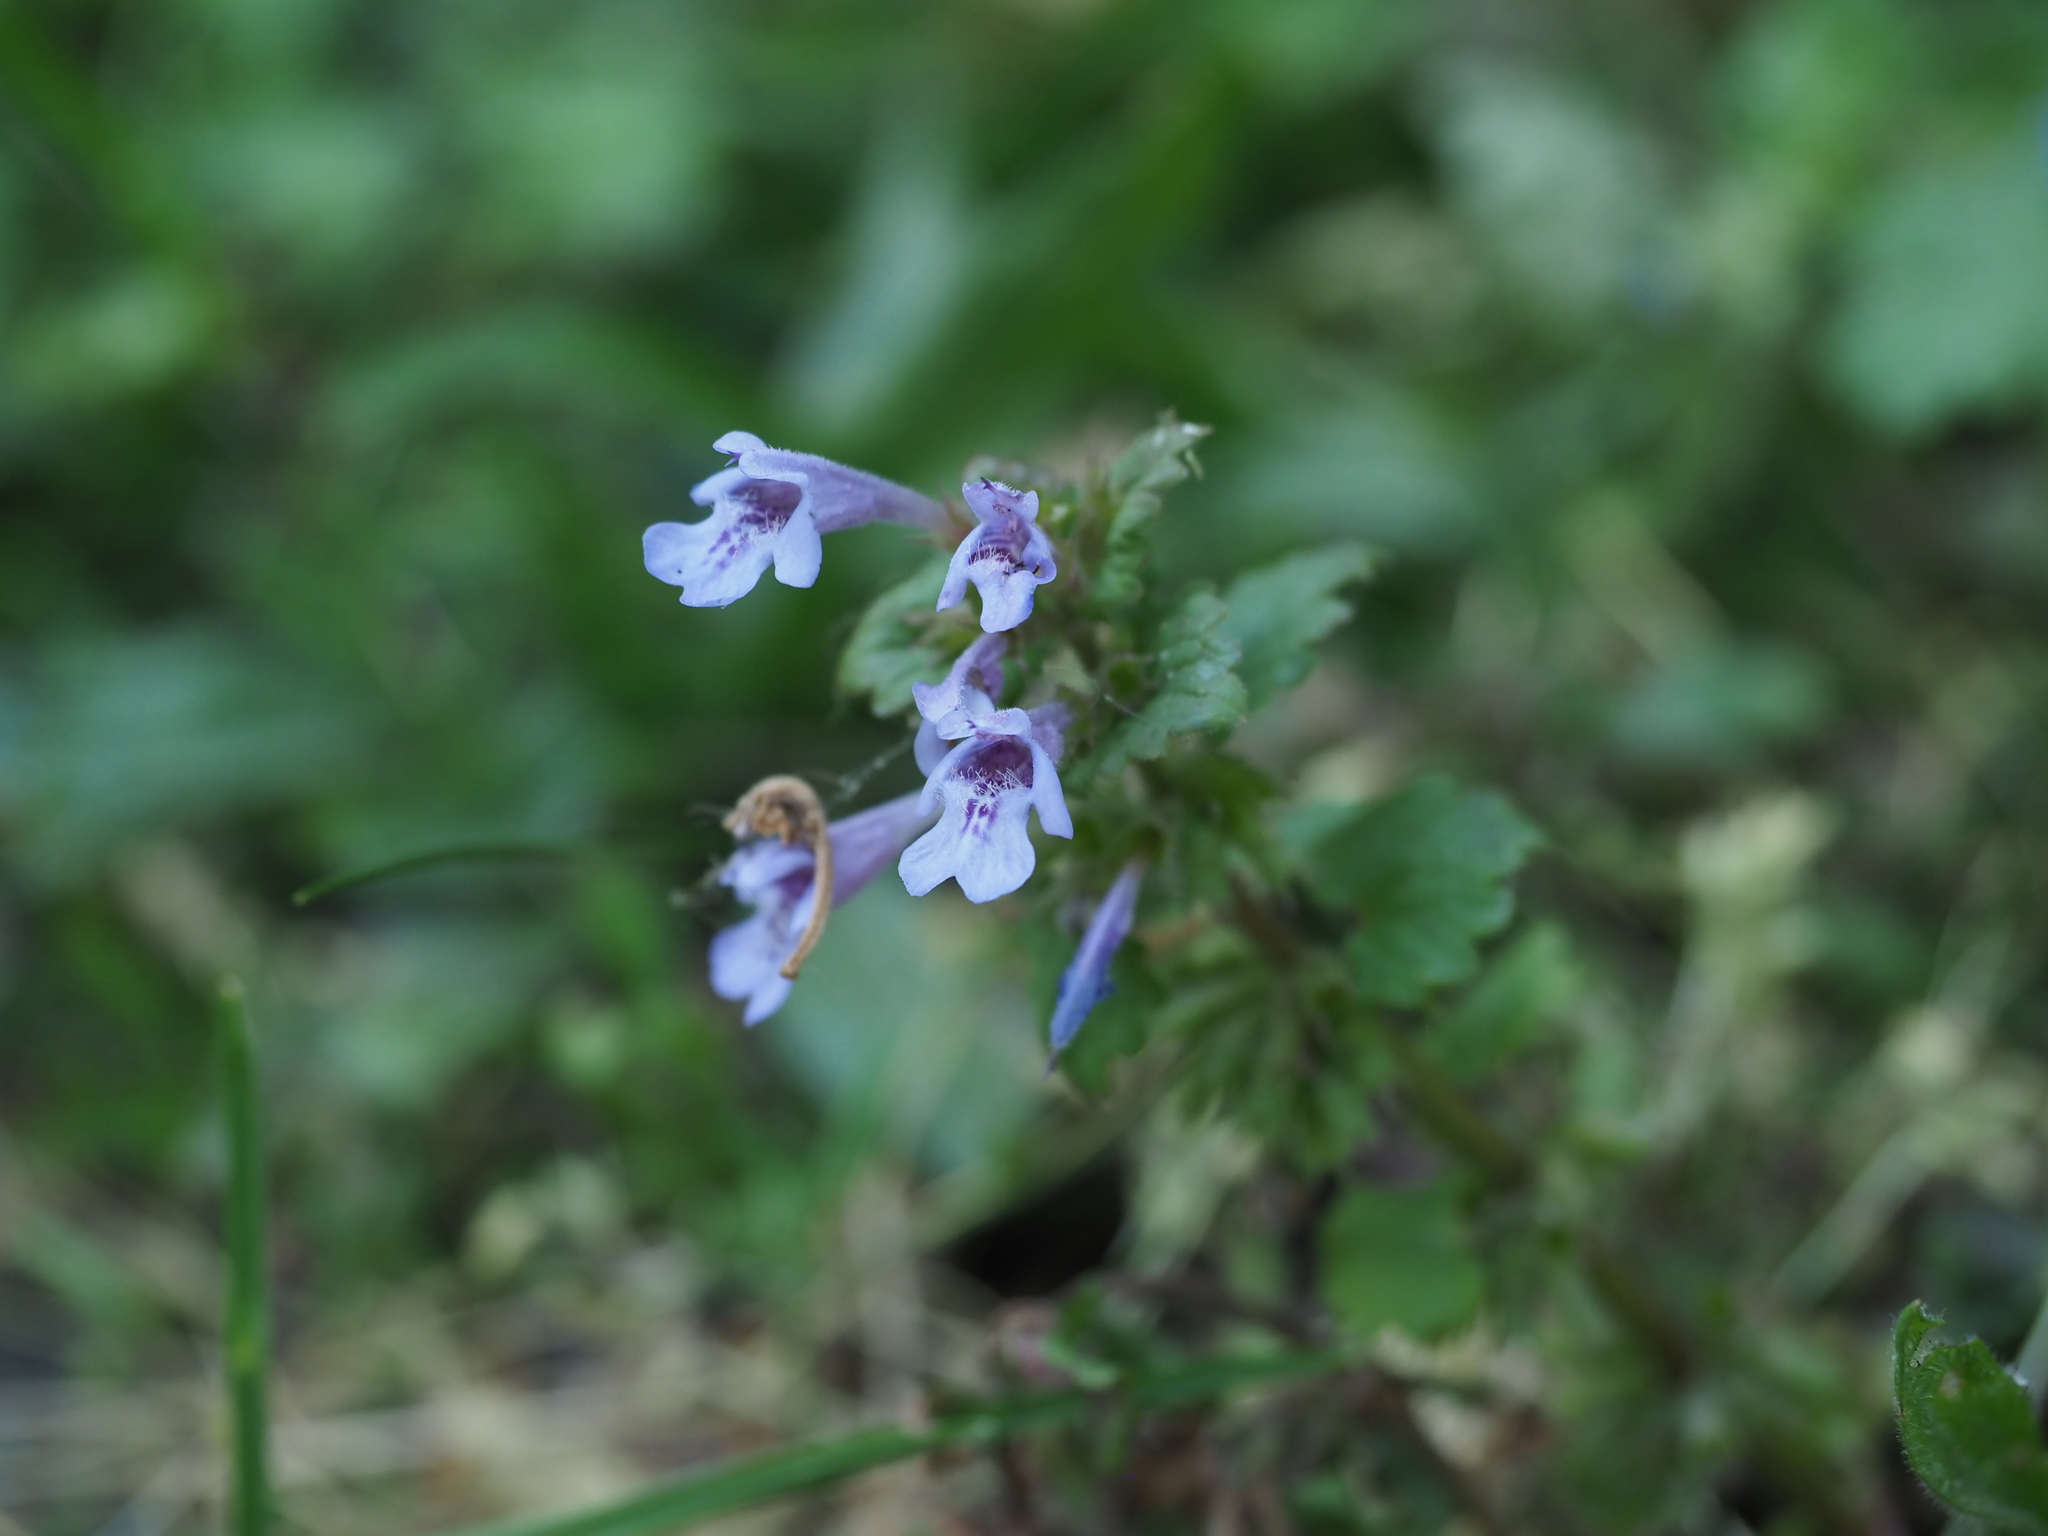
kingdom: Plantae
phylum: Tracheophyta
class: Magnoliopsida
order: Lamiales
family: Lamiaceae
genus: Glechoma
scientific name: Glechoma hederacea
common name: Ground ivy
